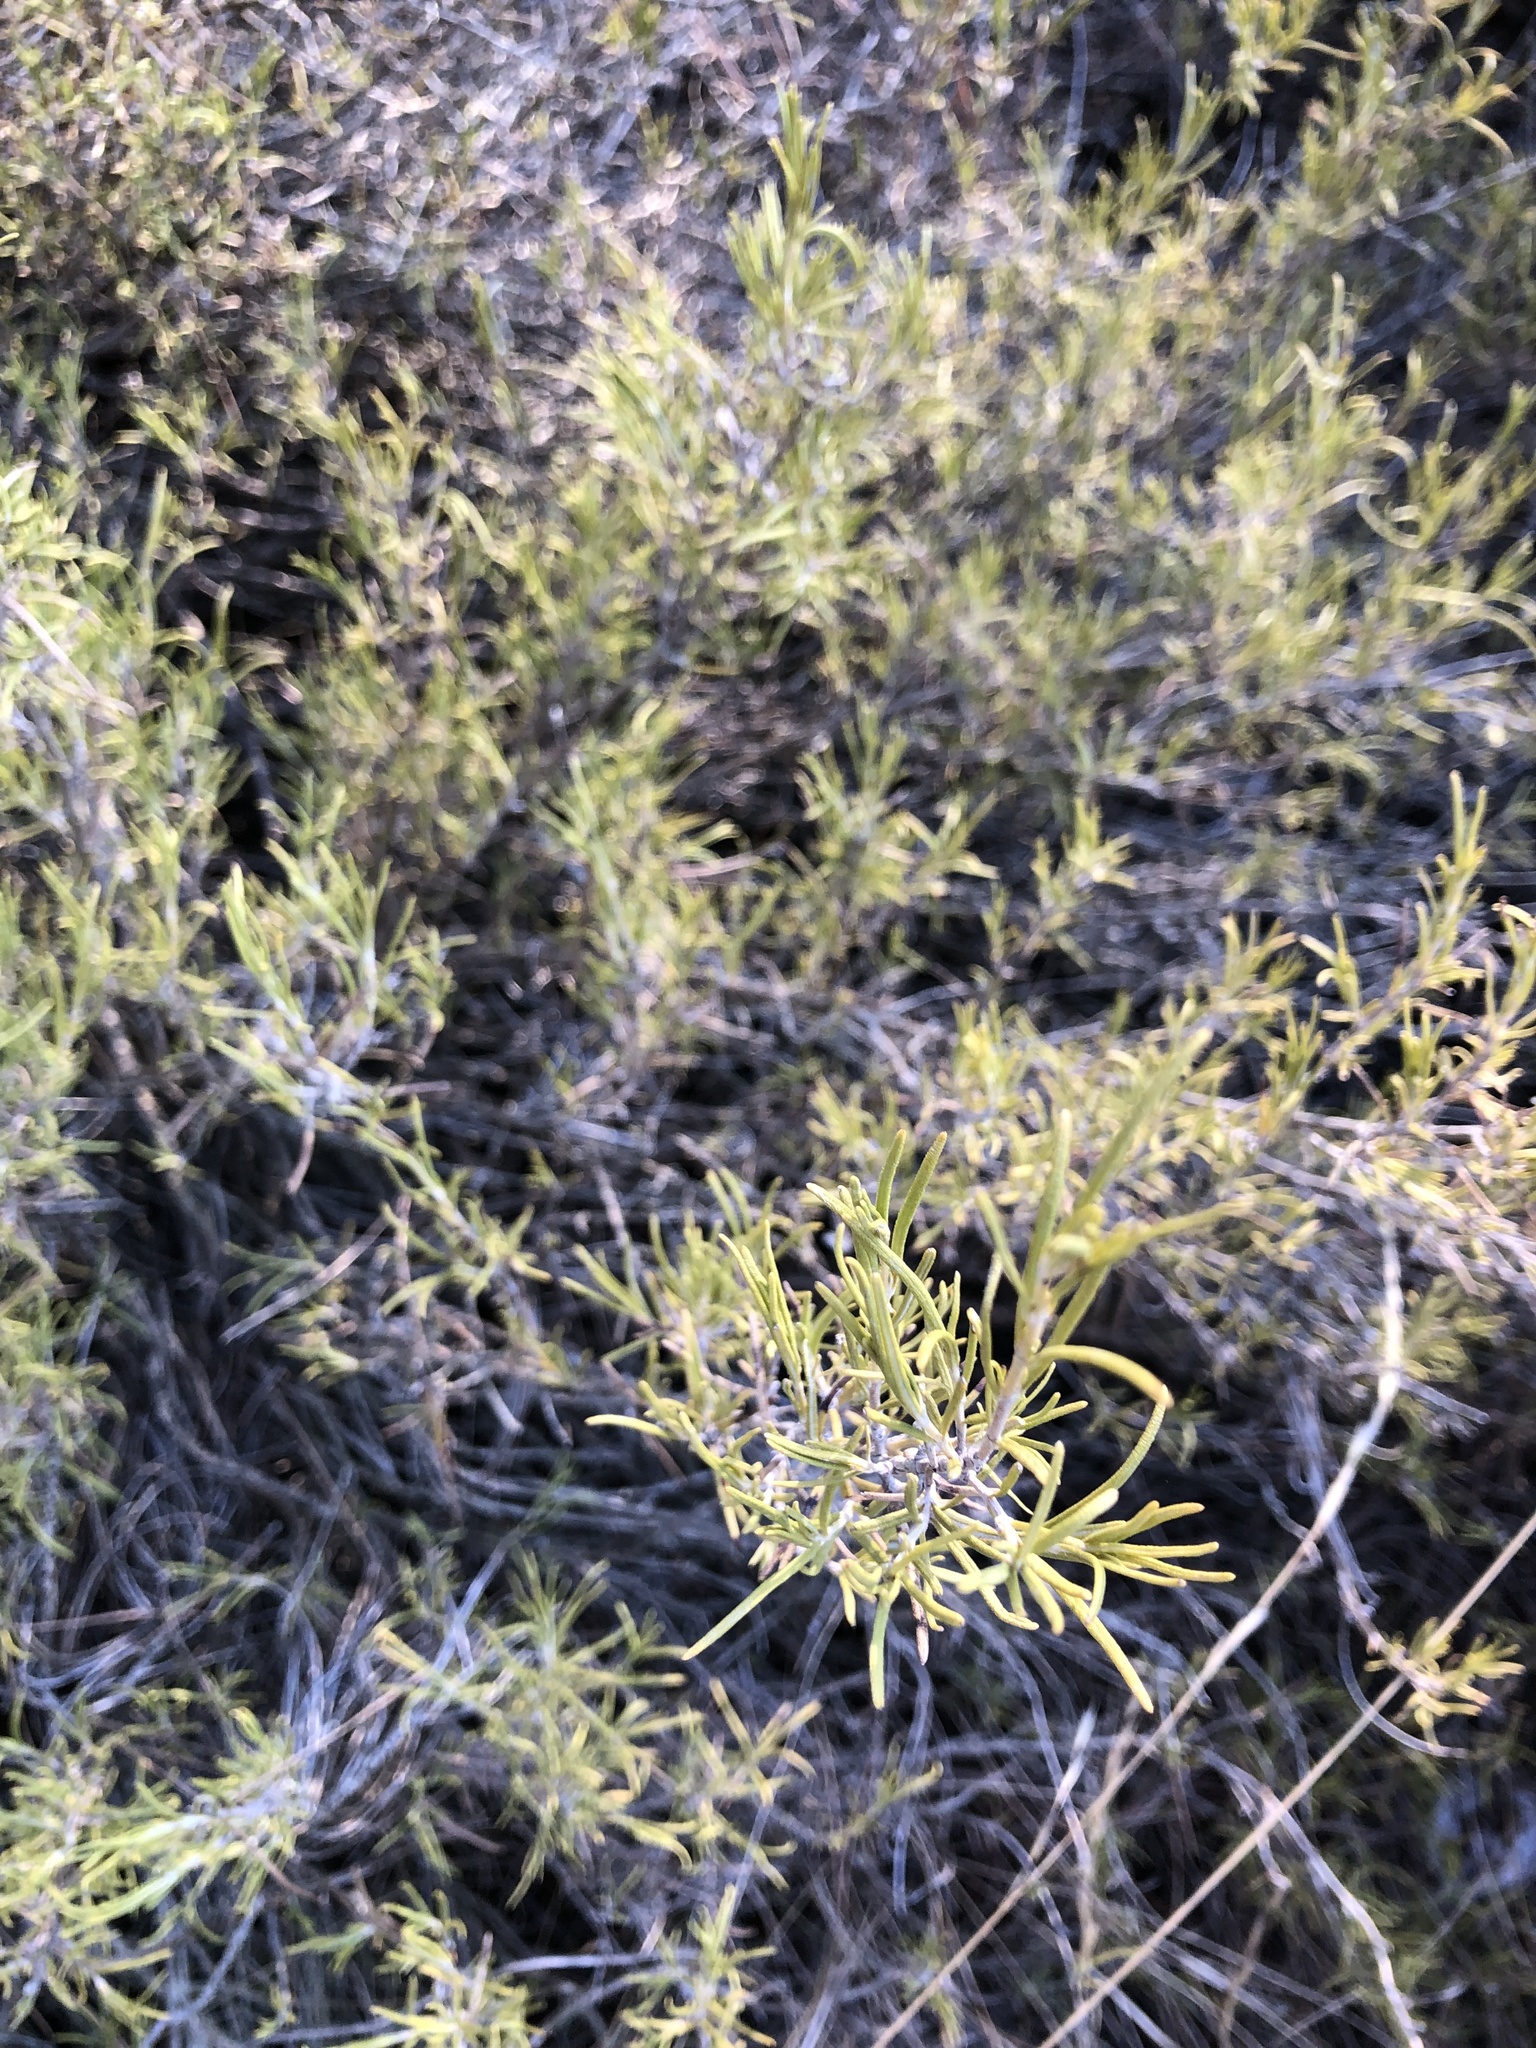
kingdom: Plantae
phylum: Tracheophyta
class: Magnoliopsida
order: Lamiales
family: Lamiaceae
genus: Salvia
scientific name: Salvia rosmarinus
